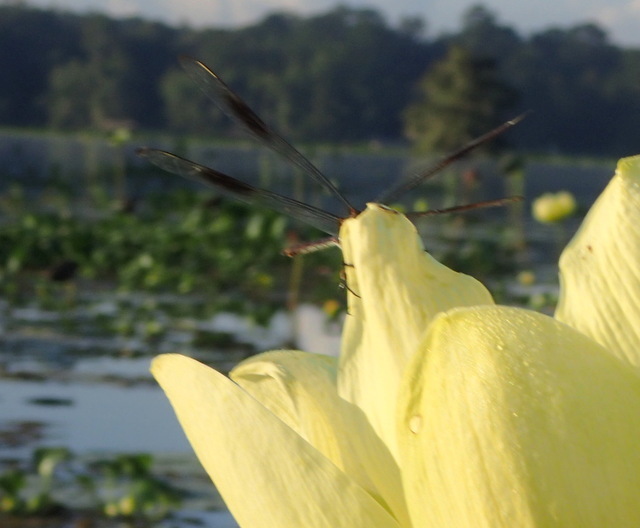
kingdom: Animalia
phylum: Arthropoda
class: Insecta
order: Odonata
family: Libellulidae
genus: Brachymesia
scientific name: Brachymesia gravida
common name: Four-spotted pennant
